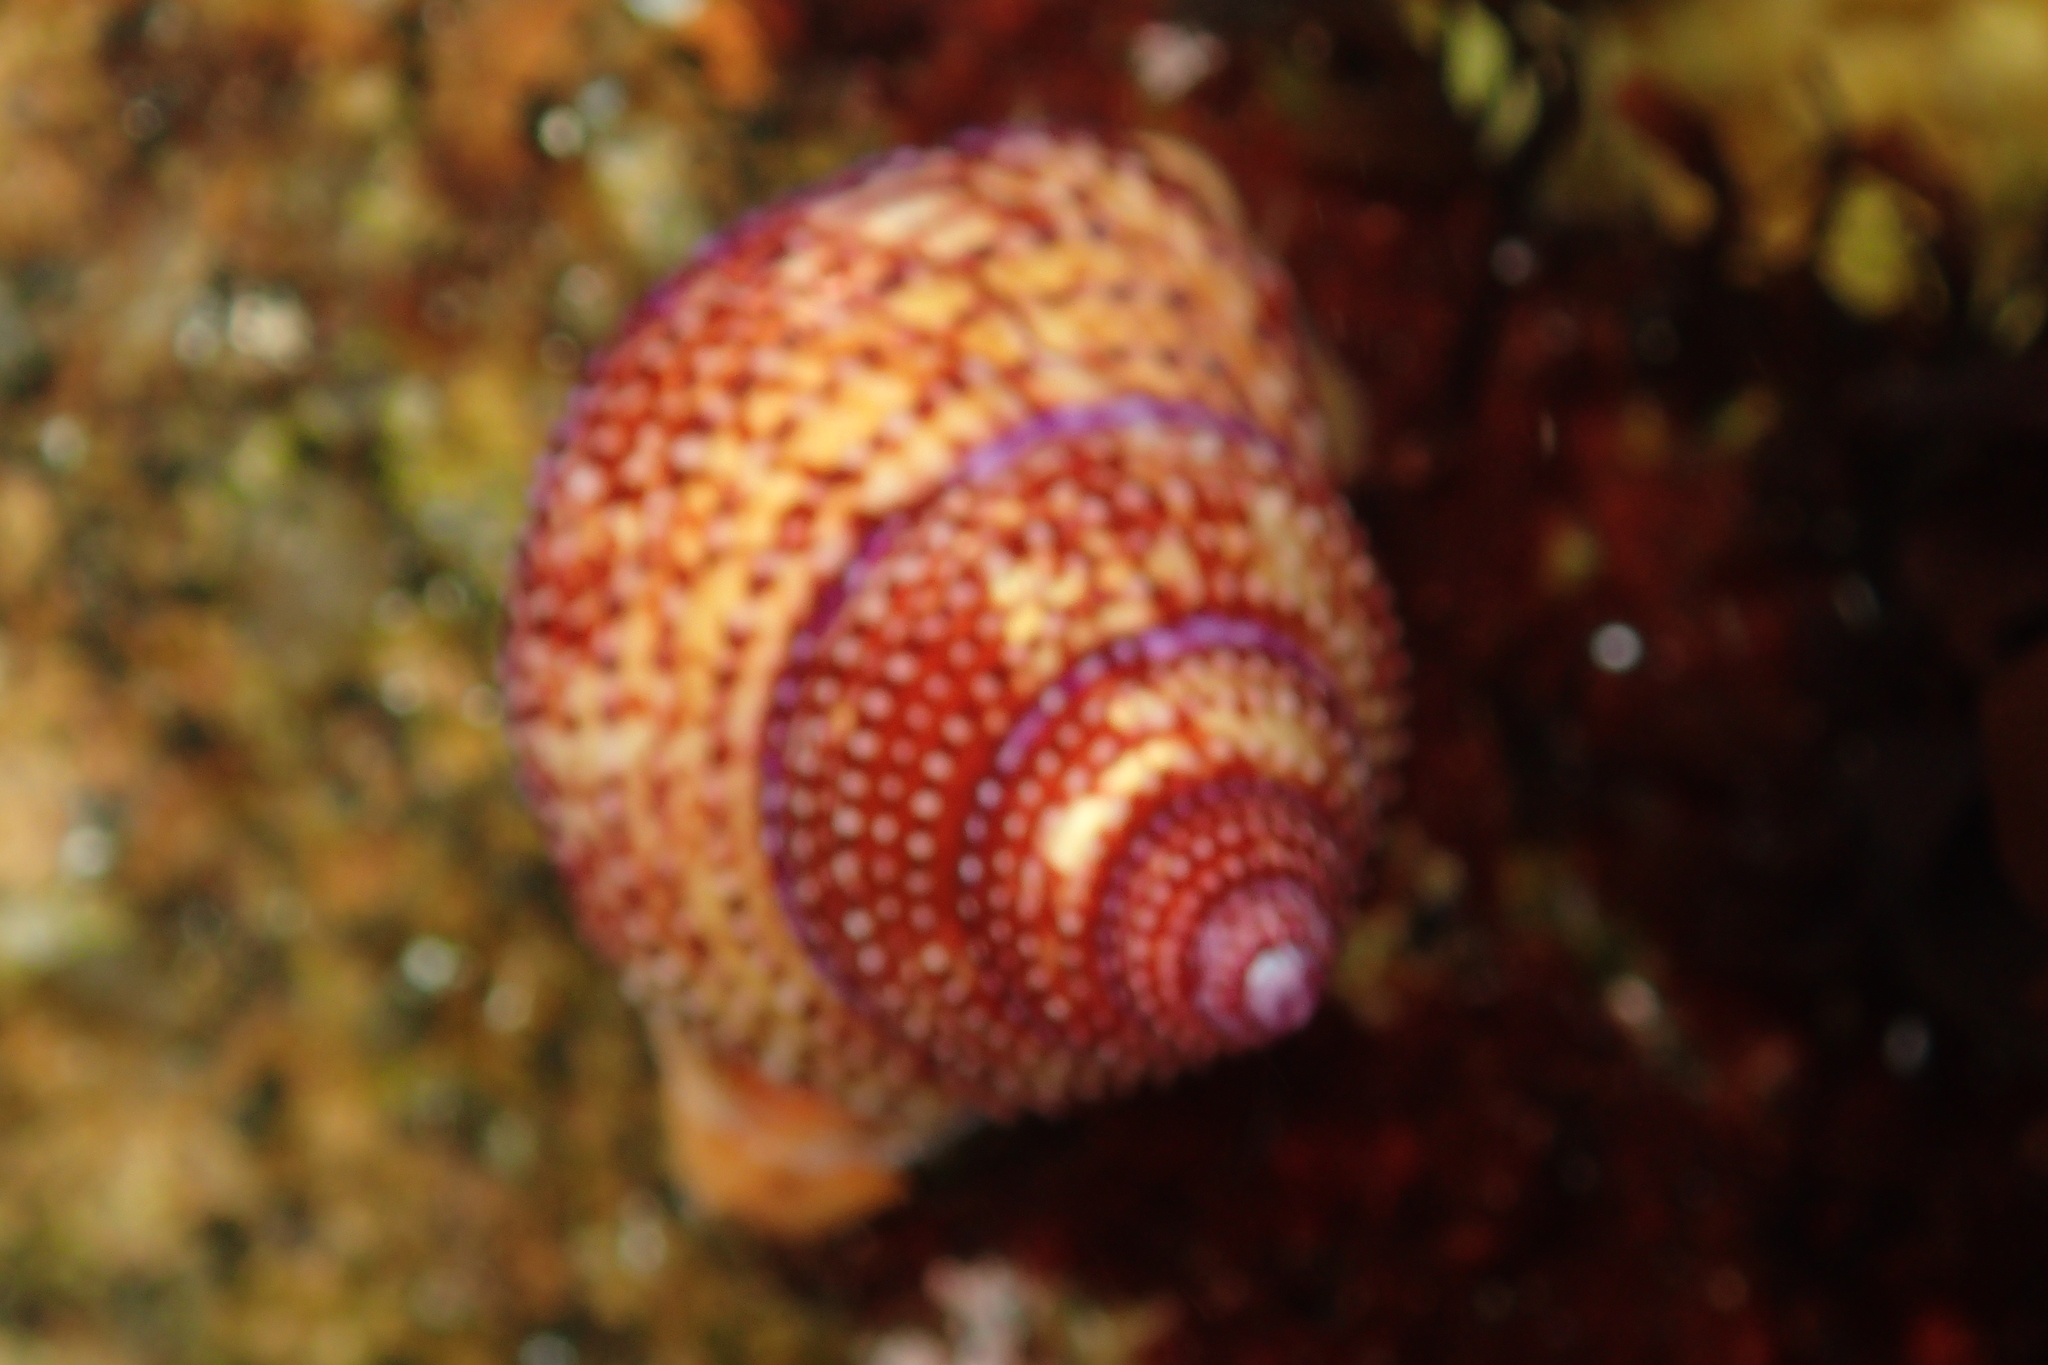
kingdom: Animalia
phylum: Mollusca
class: Gastropoda
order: Trochida
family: Calliostomatidae
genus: Calliostoma
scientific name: Calliostoma annulatum
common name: Blue-ring topsnail
